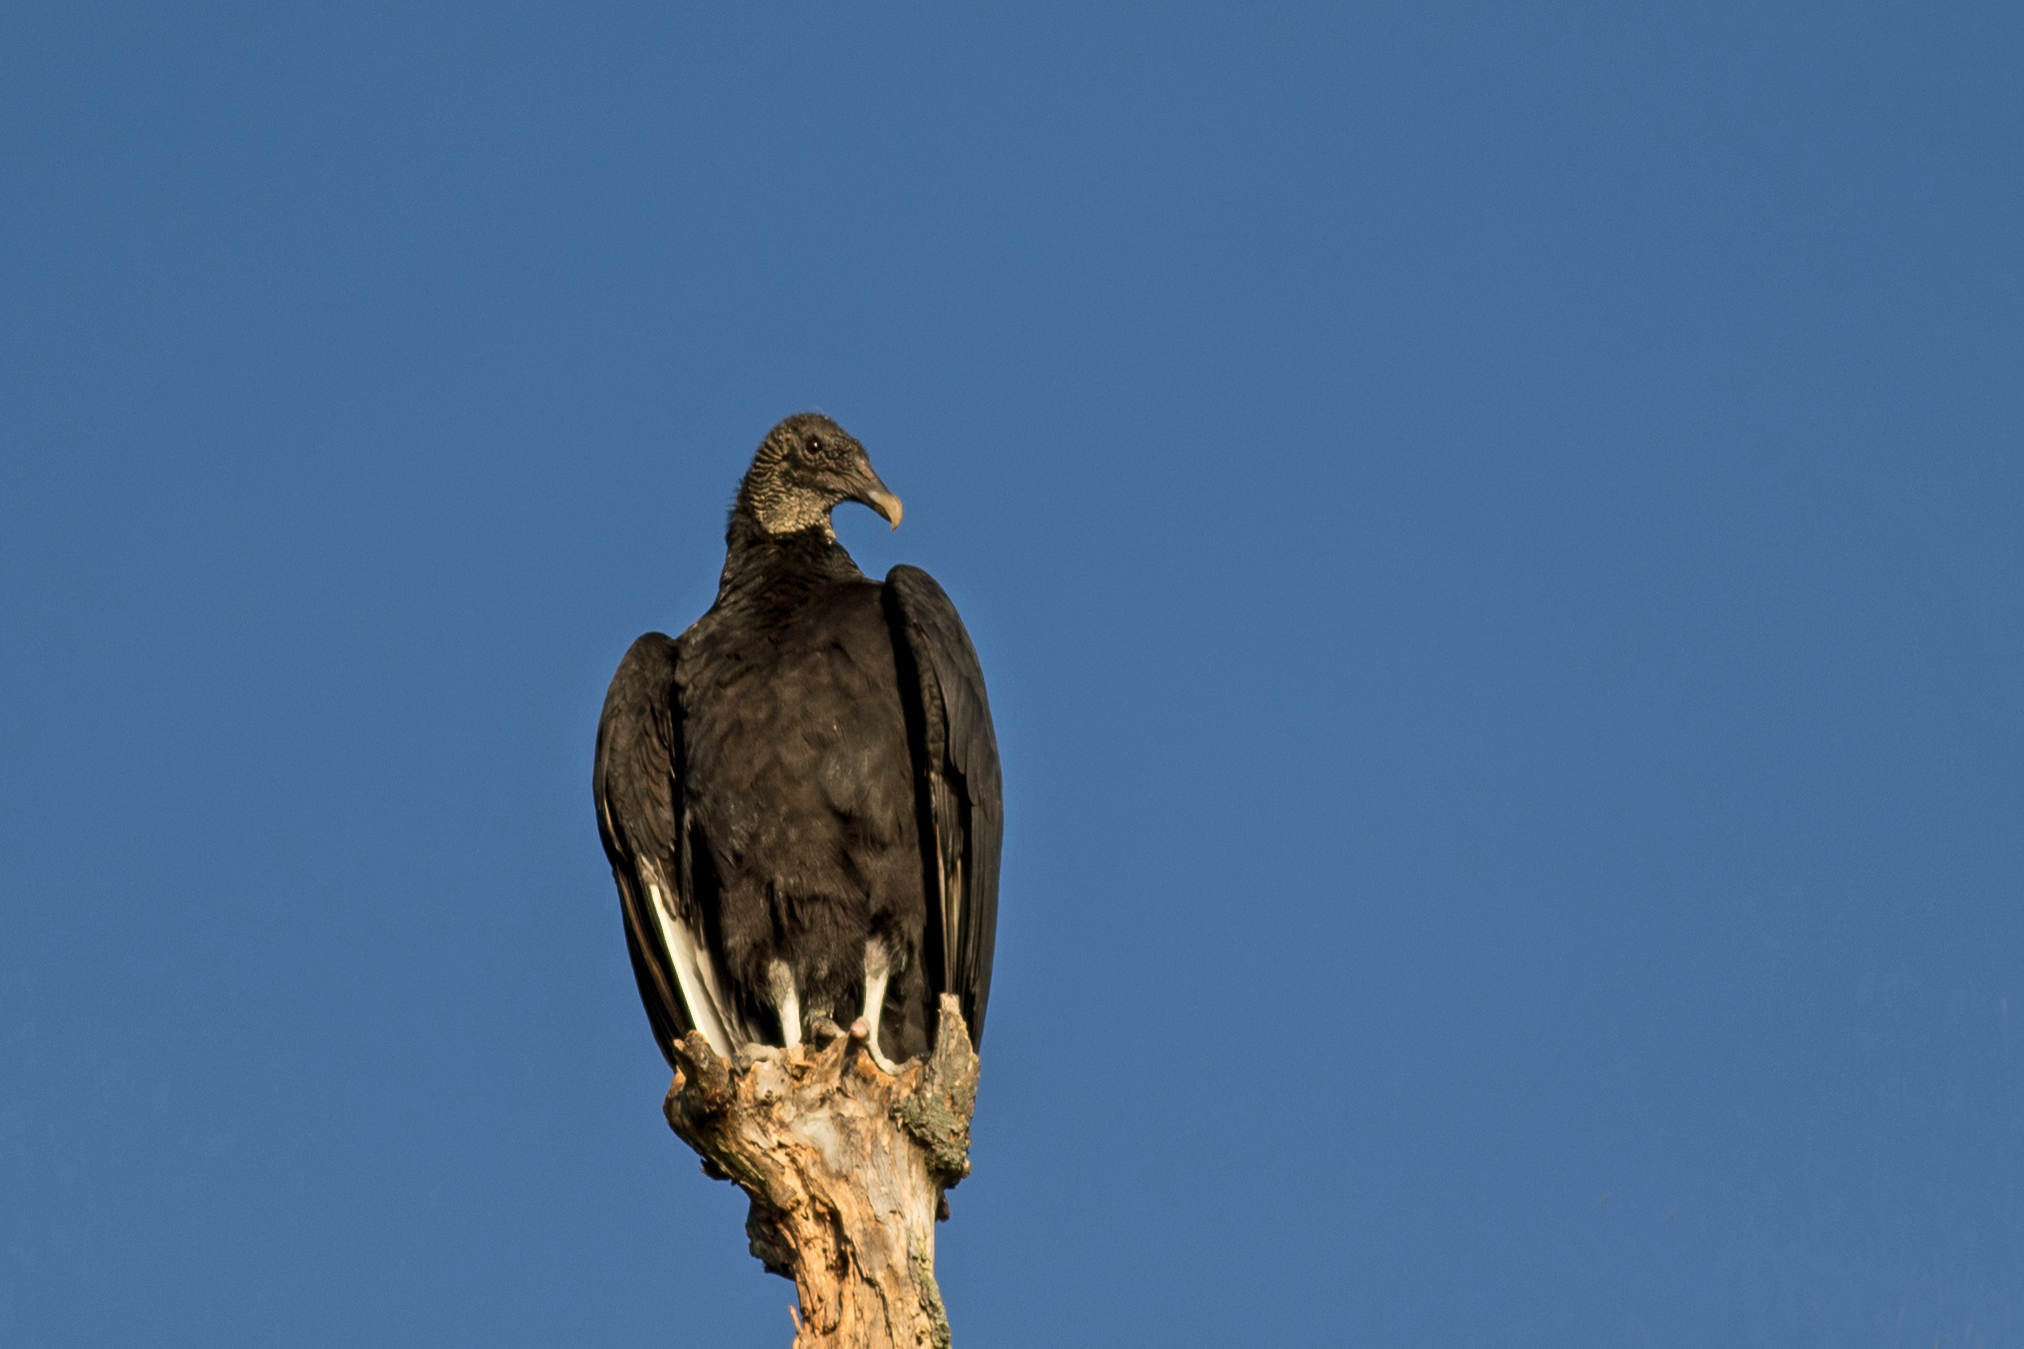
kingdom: Animalia
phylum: Chordata
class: Aves
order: Accipitriformes
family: Cathartidae
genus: Coragyps
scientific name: Coragyps atratus
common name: Black vulture
